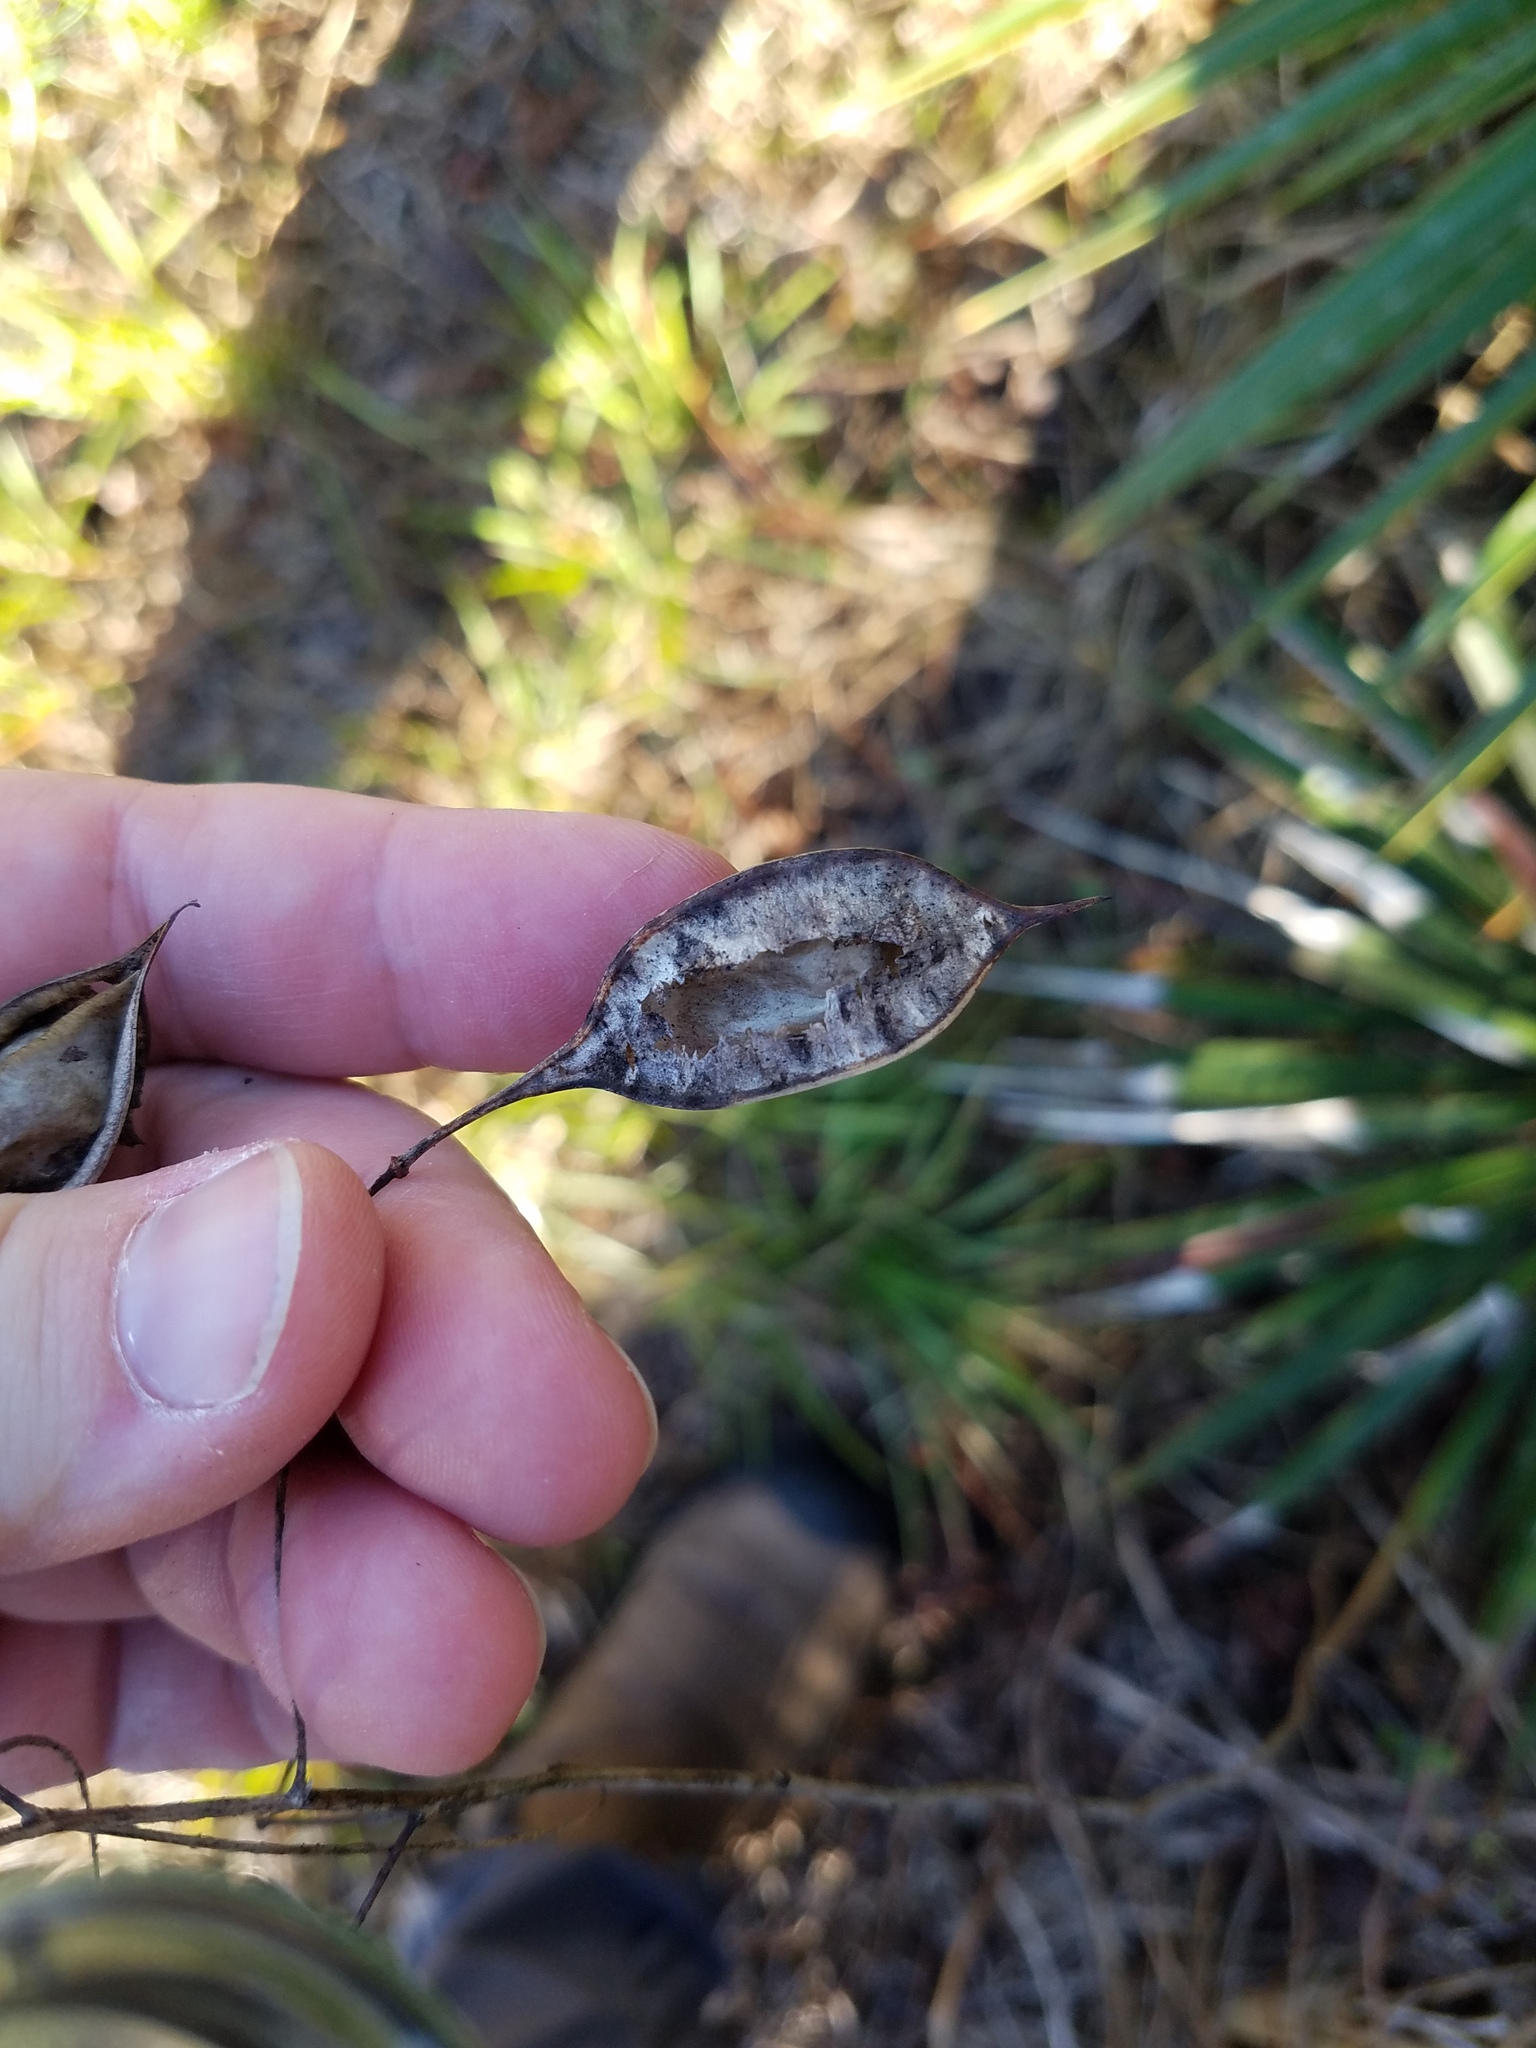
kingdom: Plantae
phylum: Tracheophyta
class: Magnoliopsida
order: Fabales
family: Fabaceae
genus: Sesbania
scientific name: Sesbania vesicaria
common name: Bagpod
